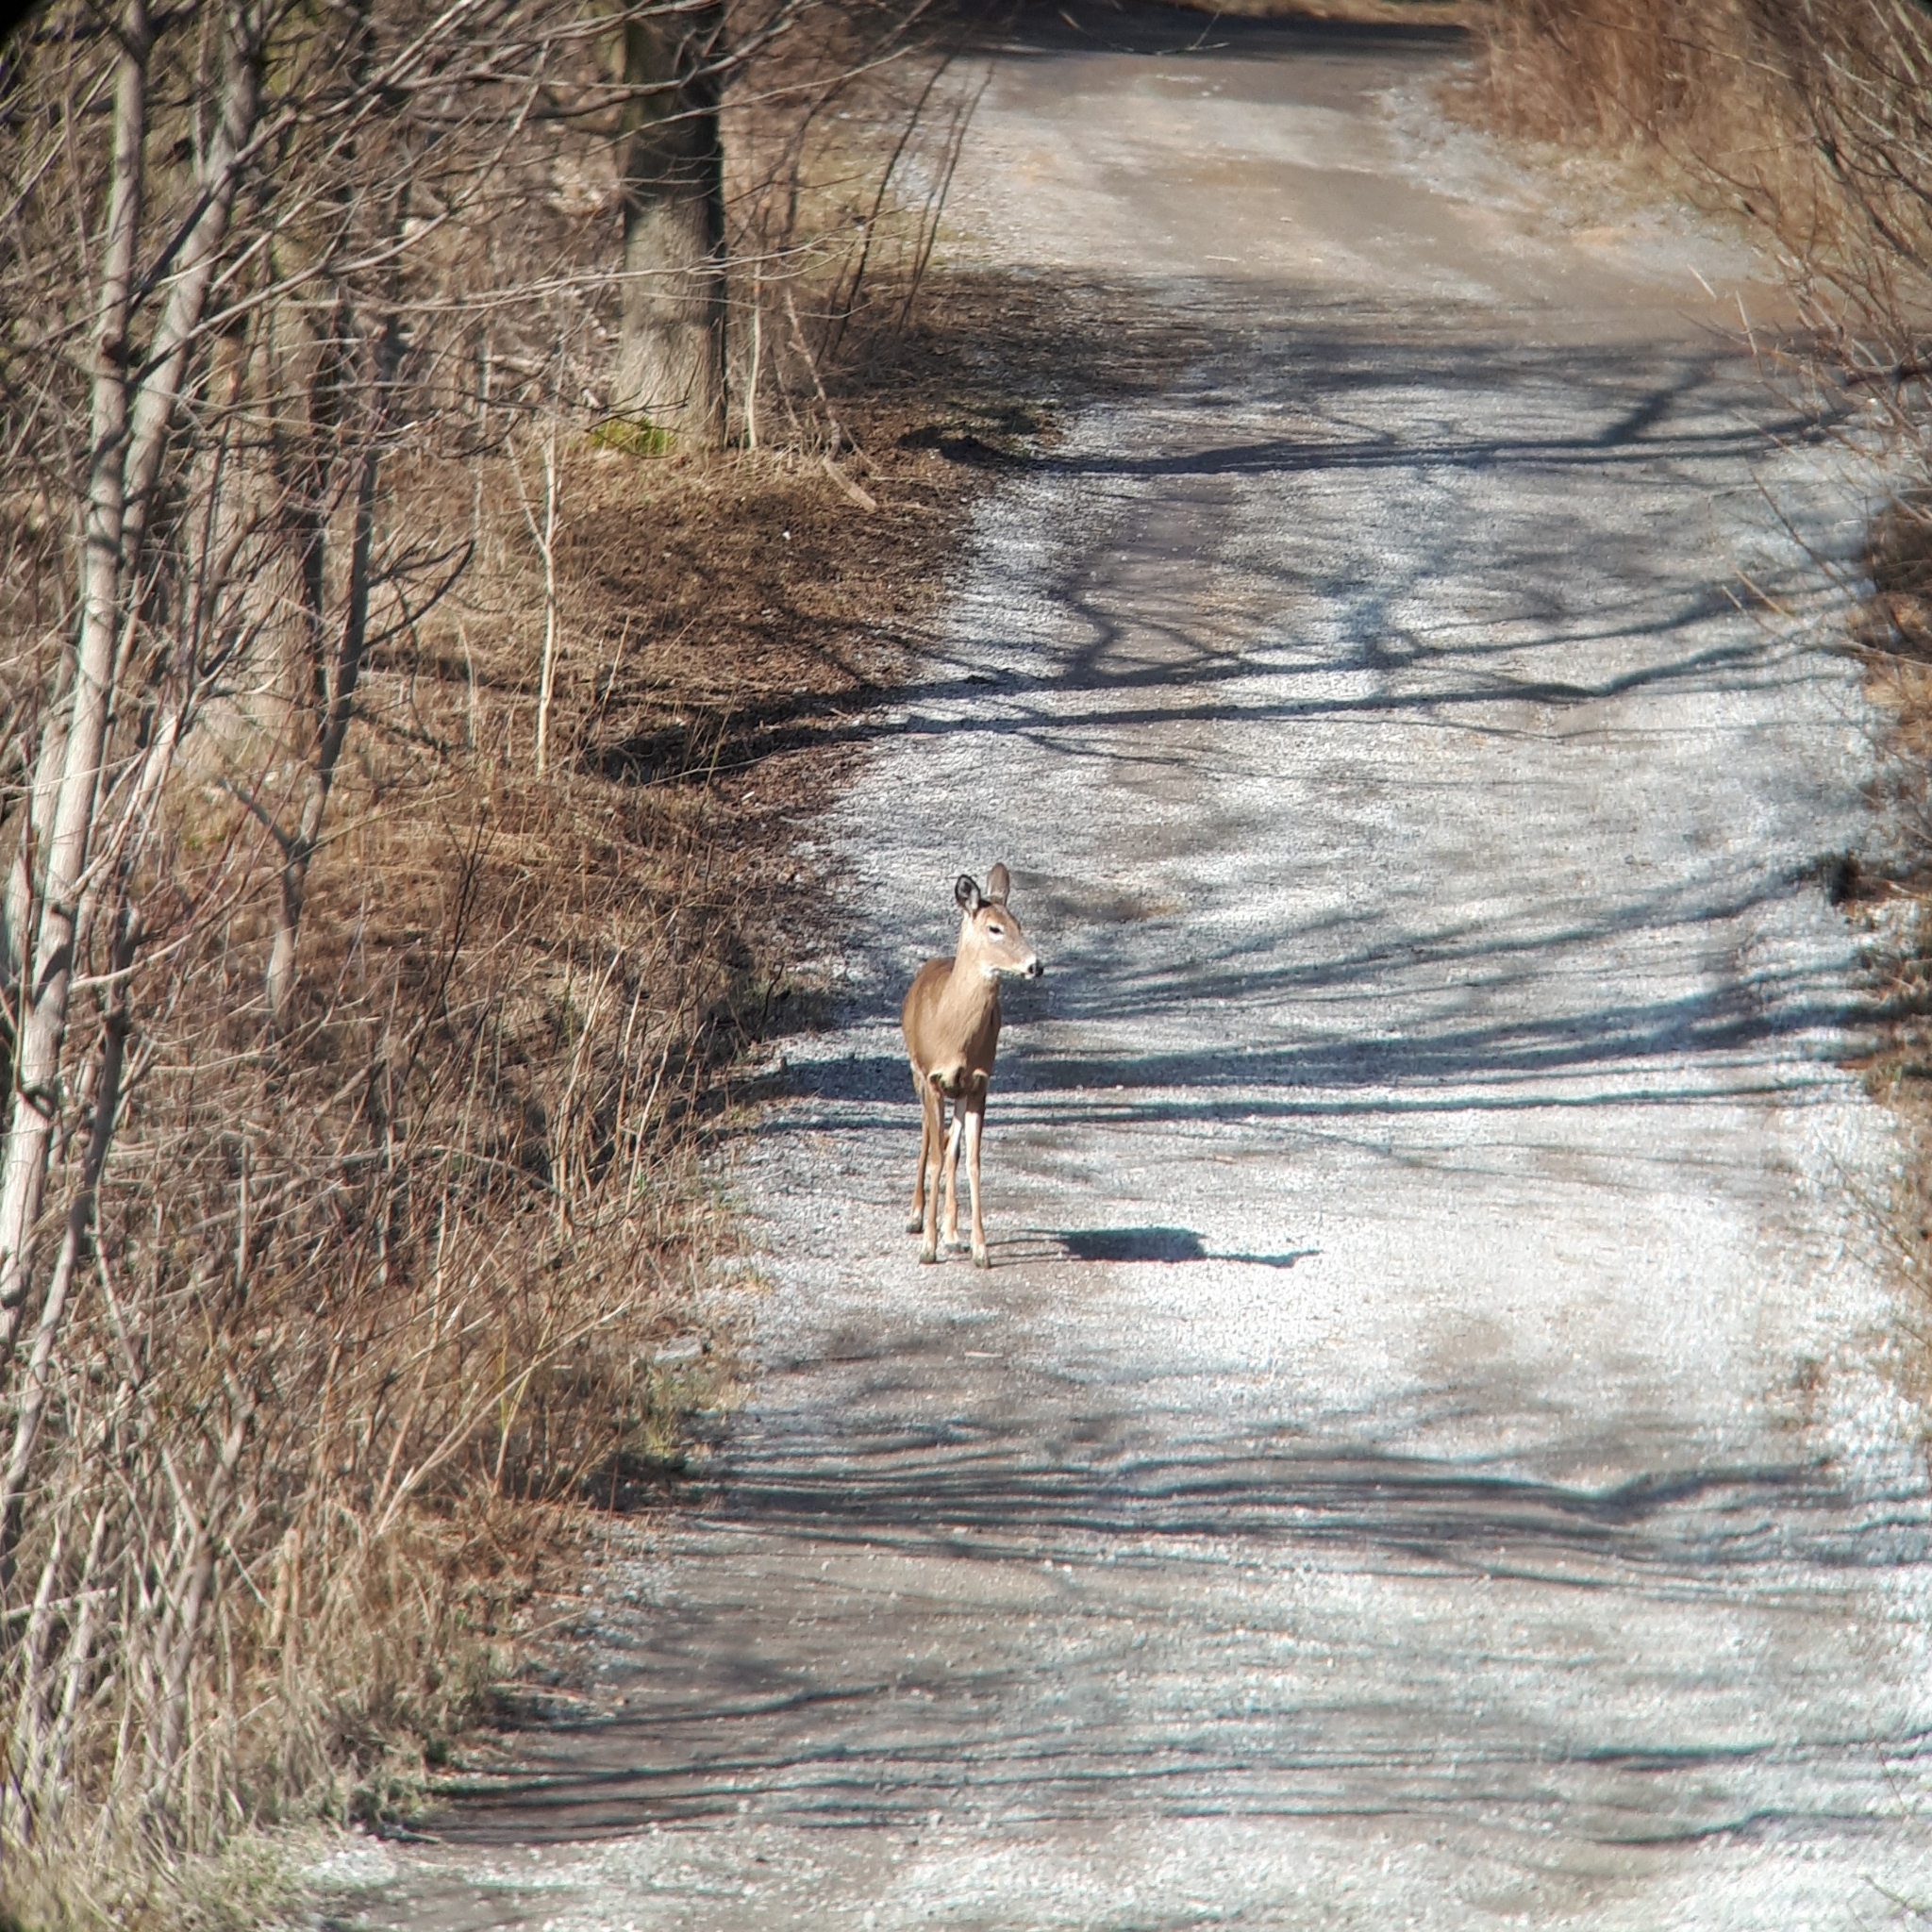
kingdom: Animalia
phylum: Chordata
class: Mammalia
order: Artiodactyla
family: Cervidae
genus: Odocoileus
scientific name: Odocoileus virginianus
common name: White-tailed deer
